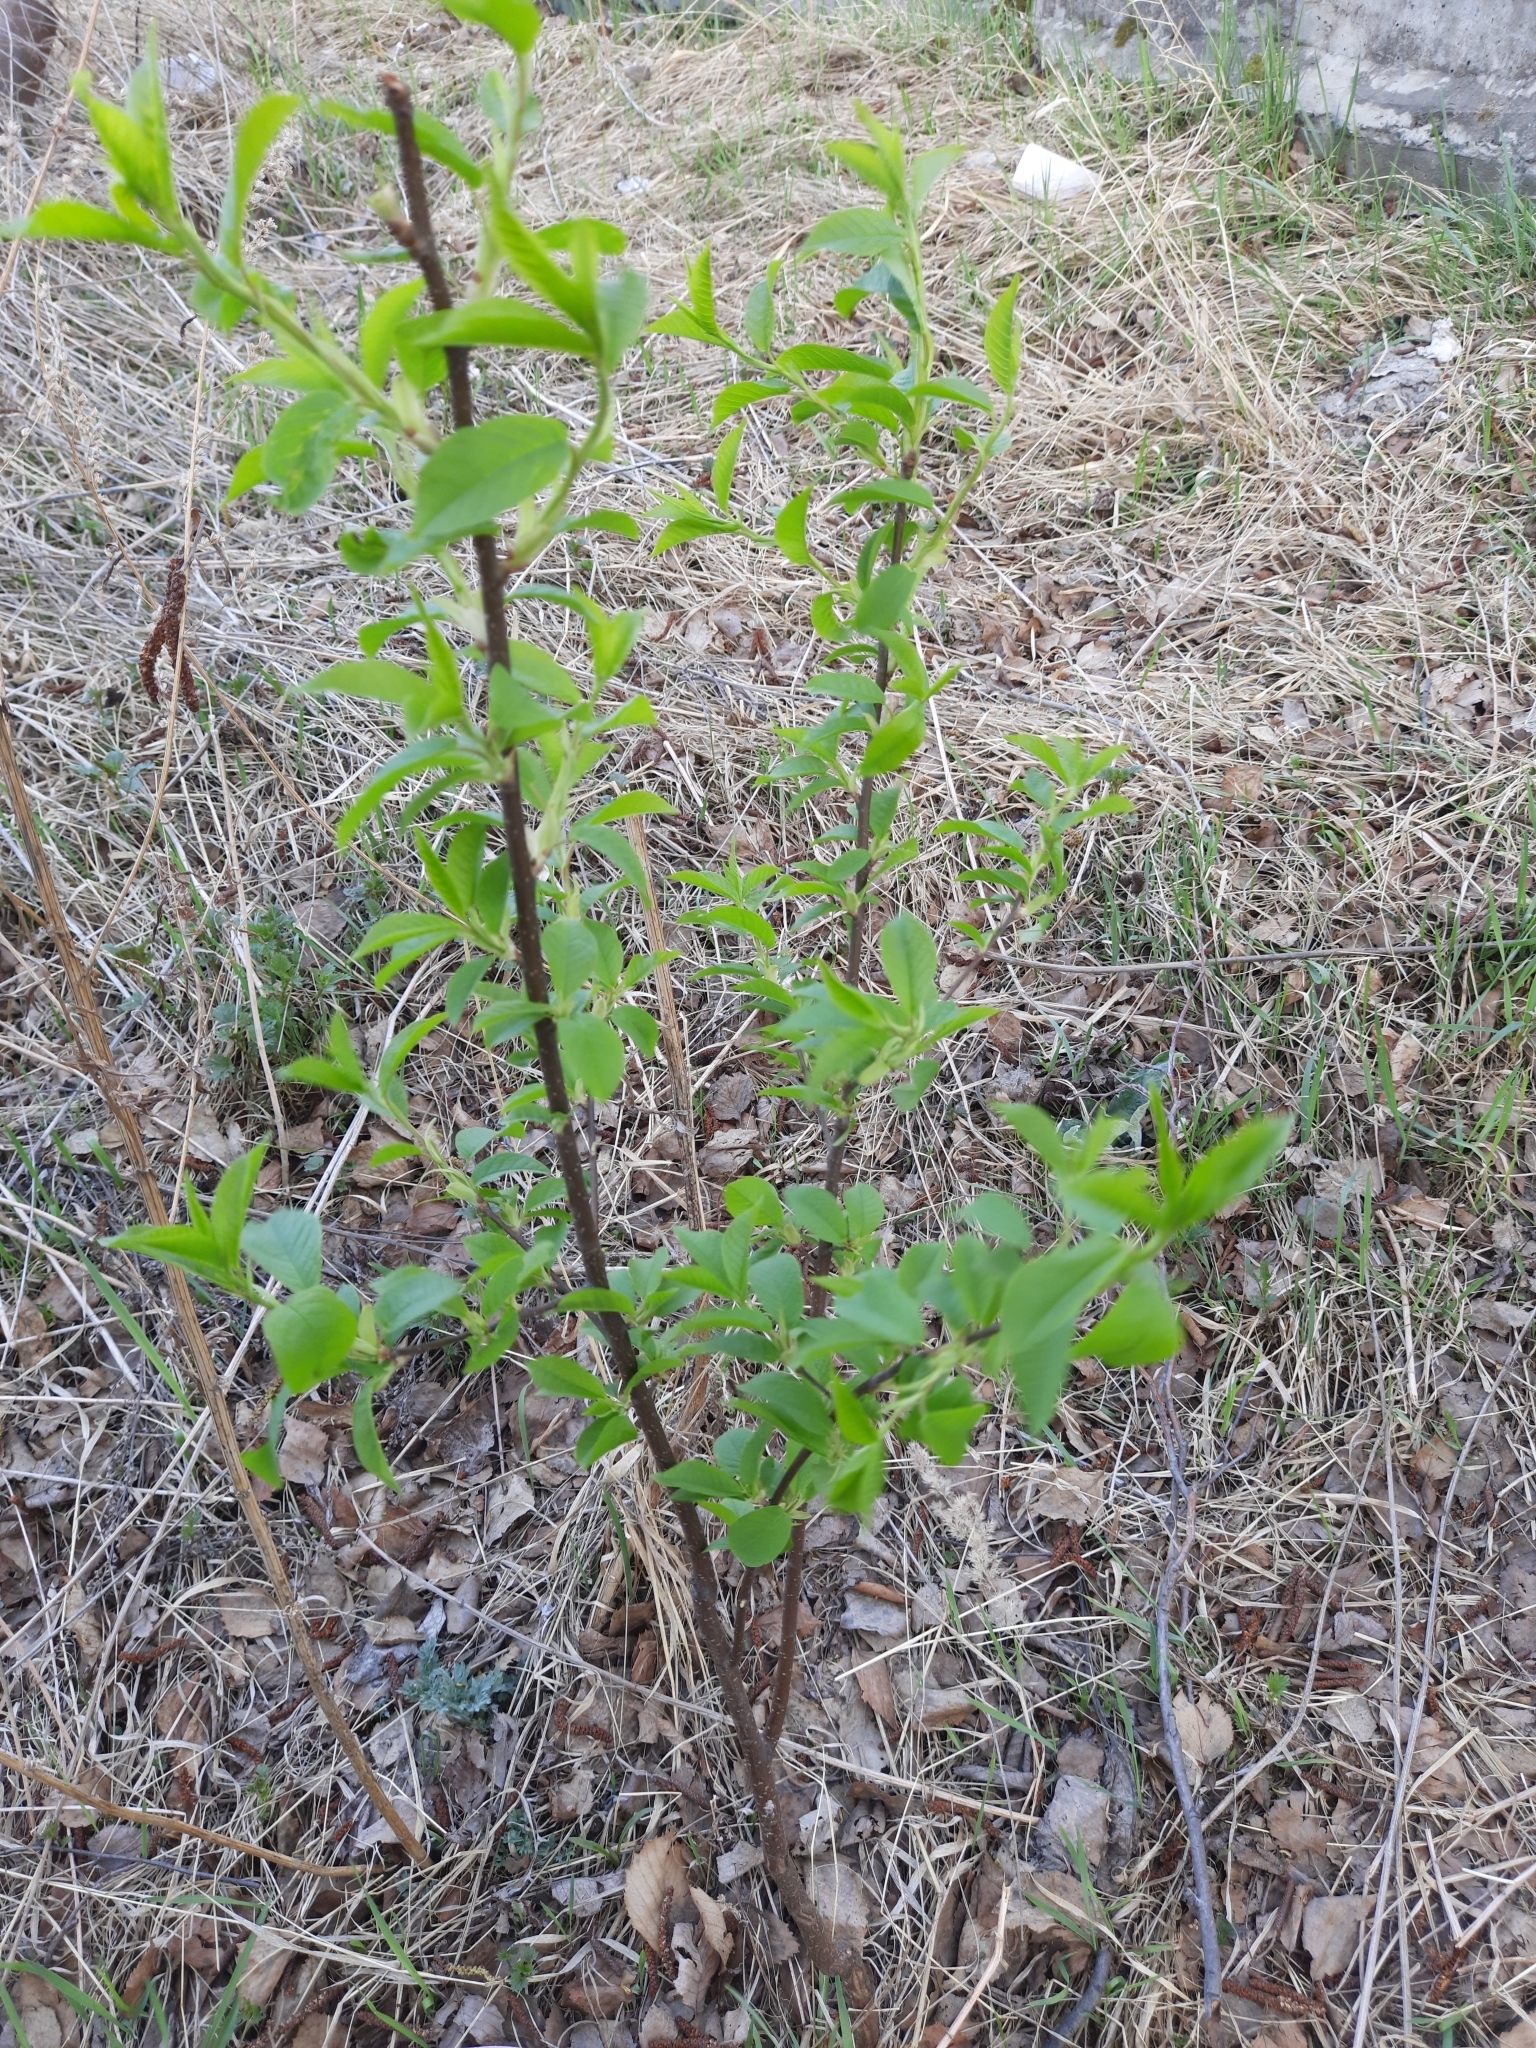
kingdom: Plantae
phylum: Tracheophyta
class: Magnoliopsida
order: Rosales
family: Rosaceae
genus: Prunus
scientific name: Prunus padus
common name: Bird cherry
